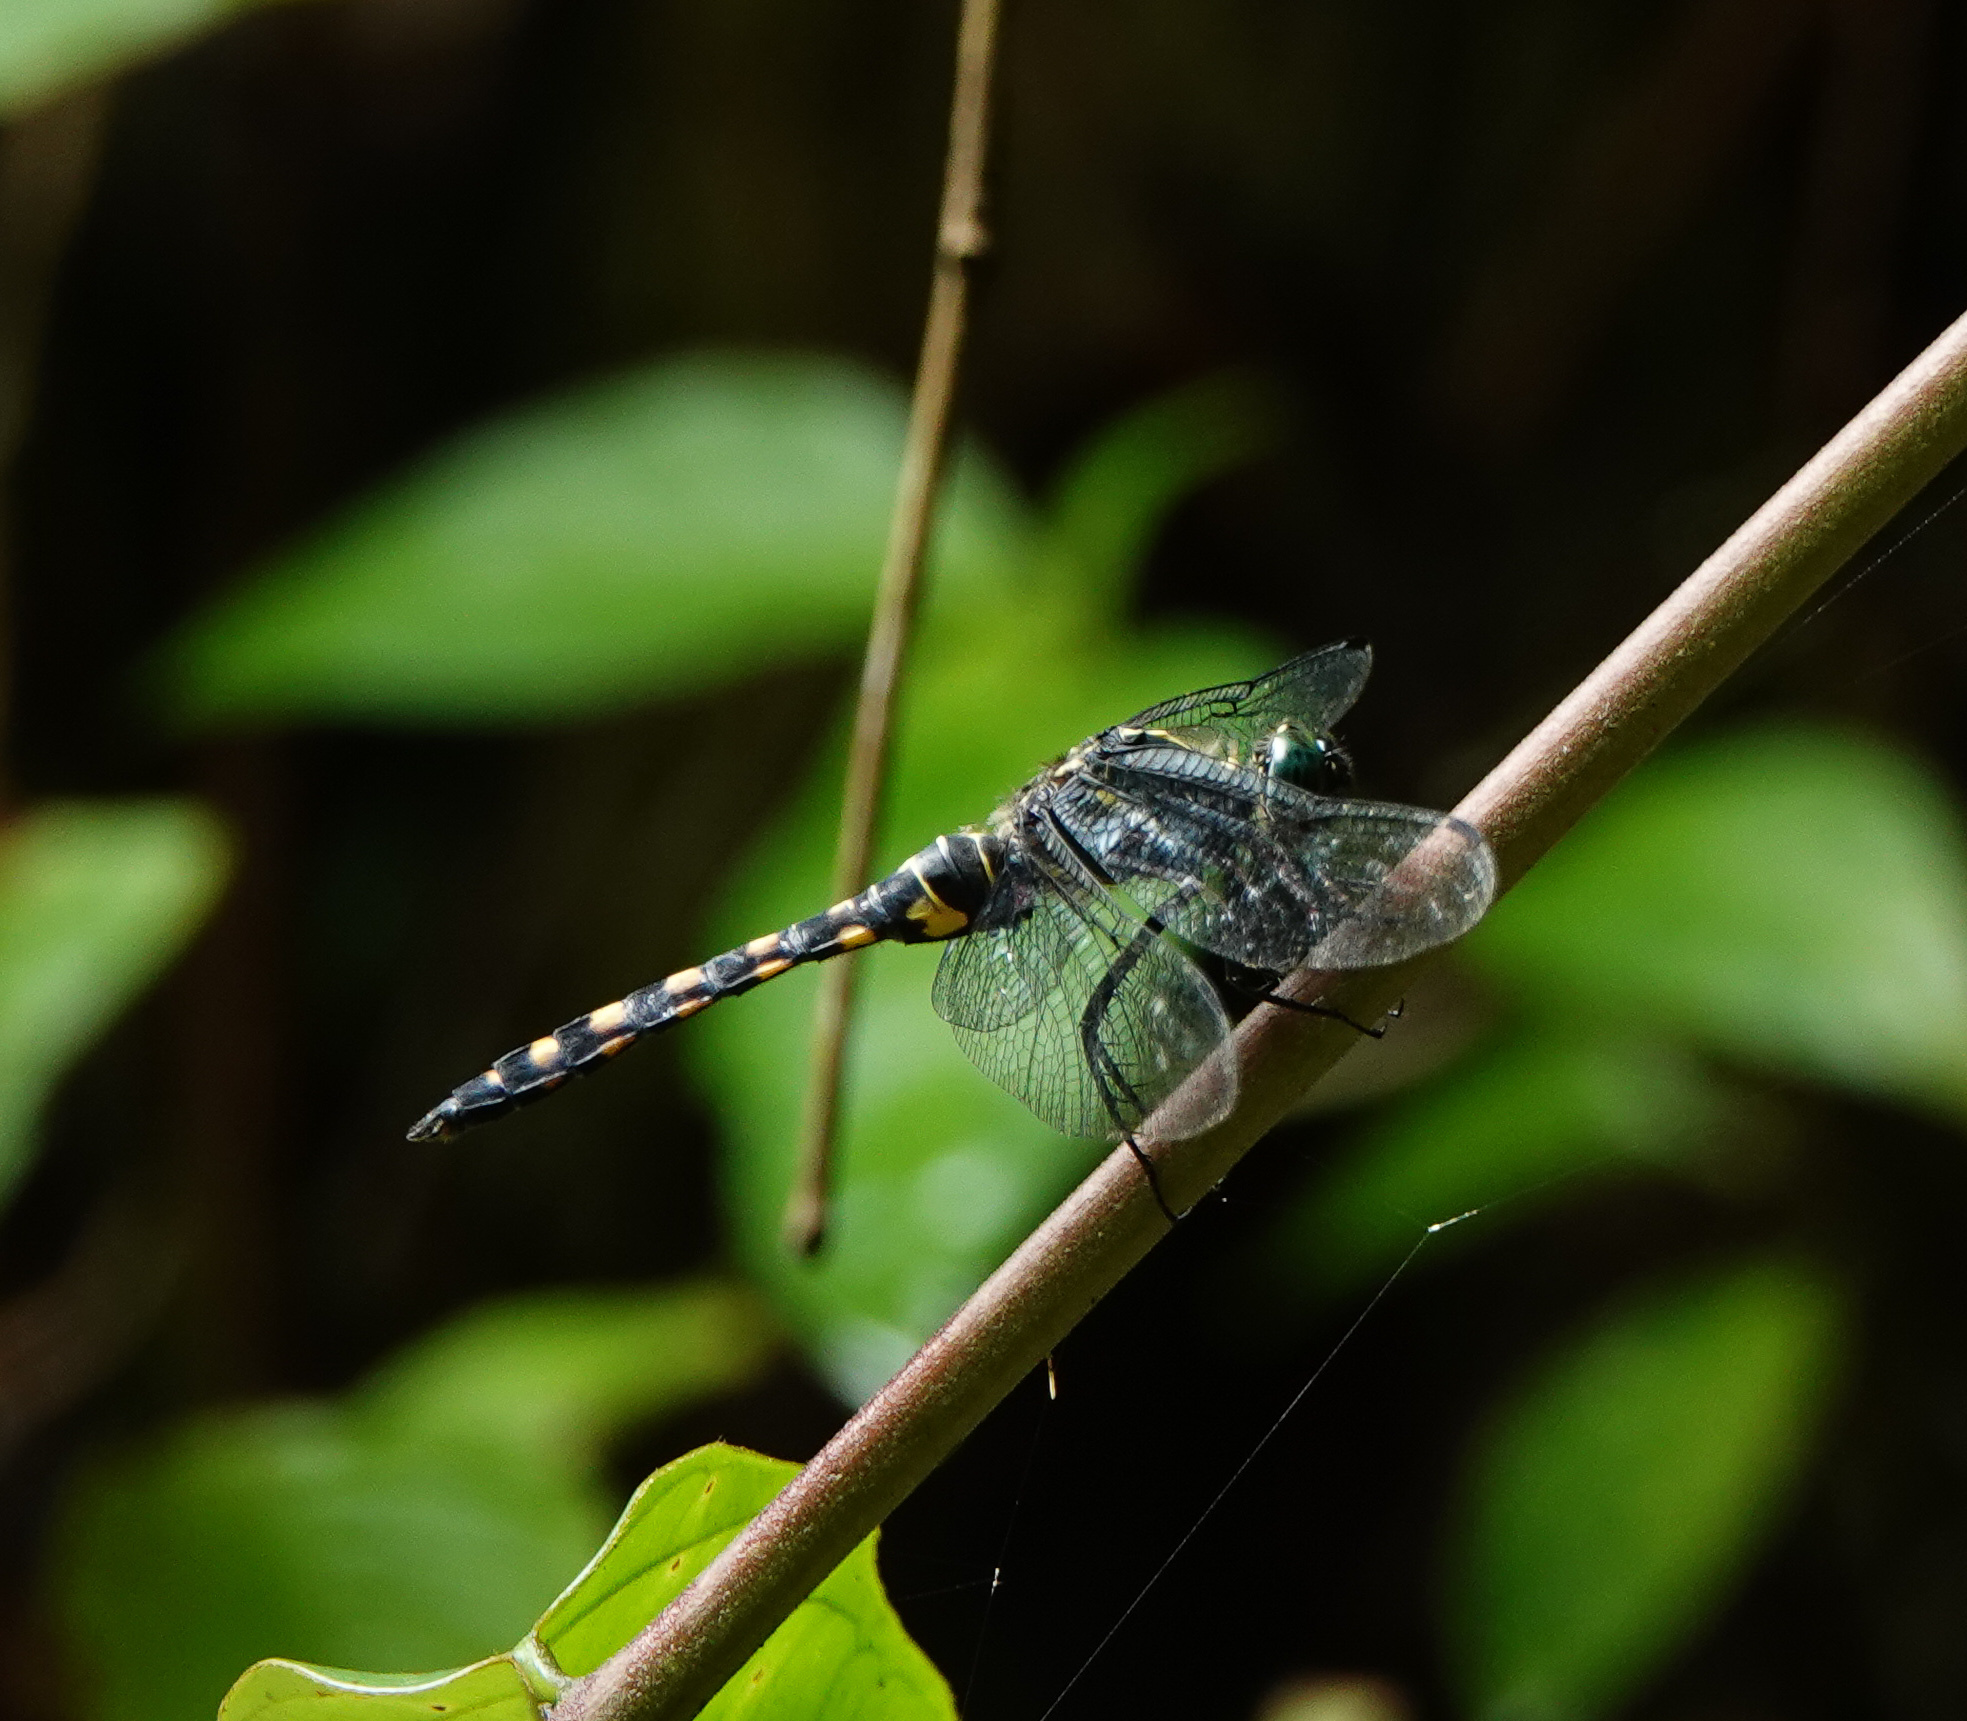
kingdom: Animalia
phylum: Arthropoda
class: Insecta
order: Odonata
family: Libellulidae
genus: Onychothemis
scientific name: Onychothemis testacea
